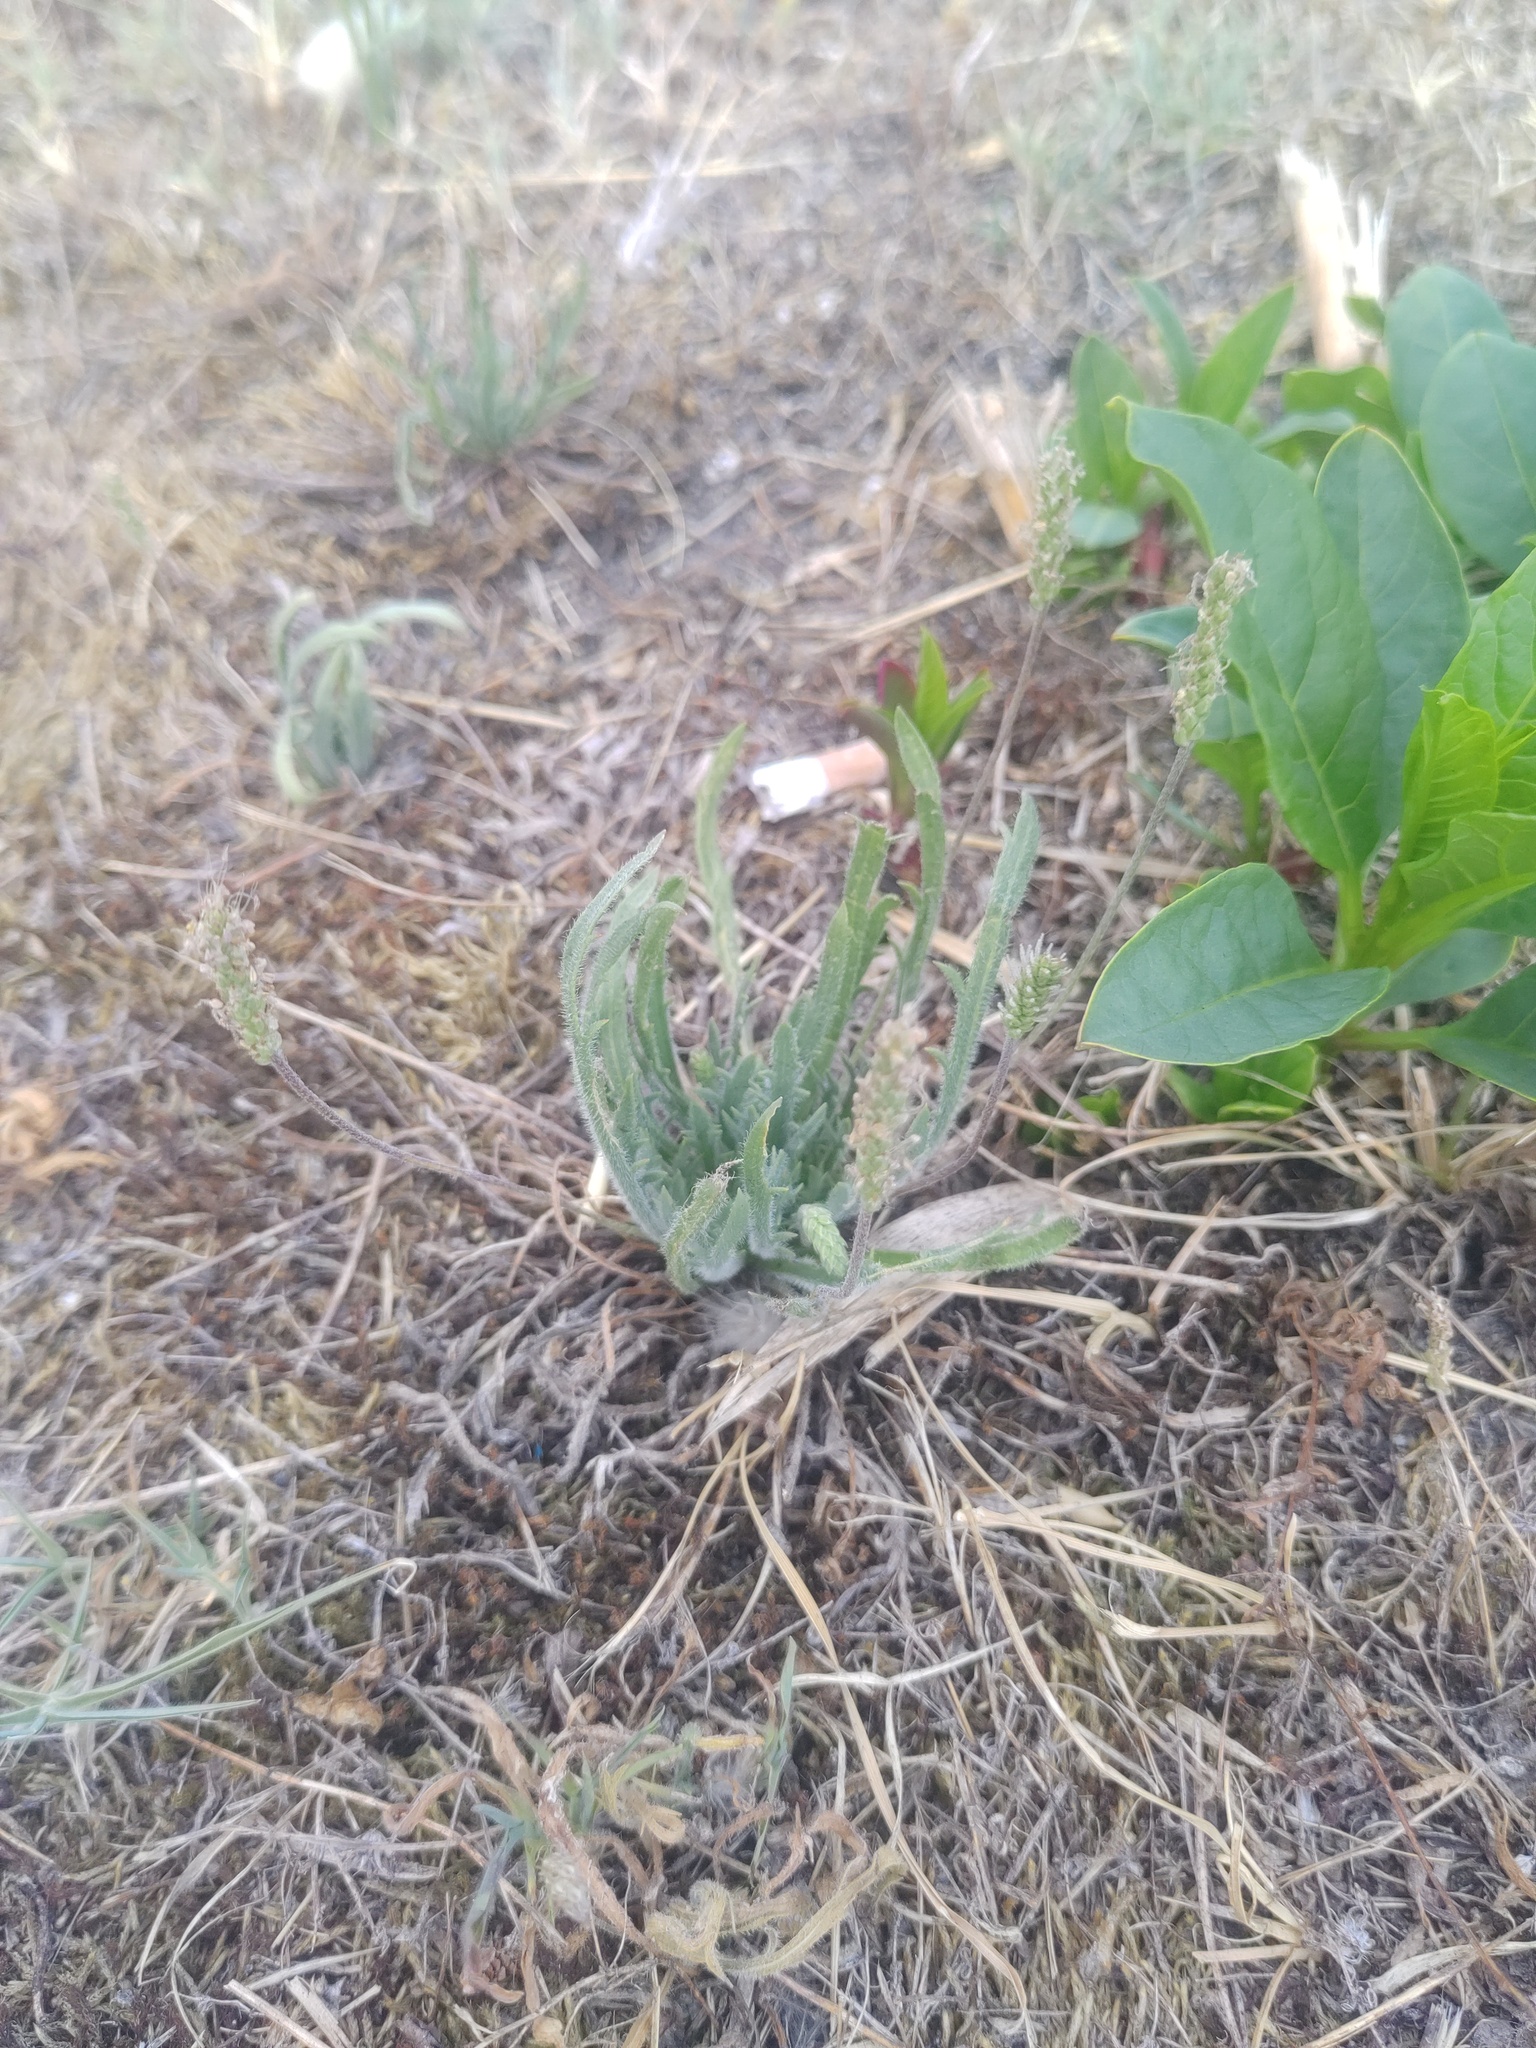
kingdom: Plantae
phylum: Tracheophyta
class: Magnoliopsida
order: Lamiales
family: Plantaginaceae
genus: Plantago
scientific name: Plantago coronopus
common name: Buck's-horn plantain
